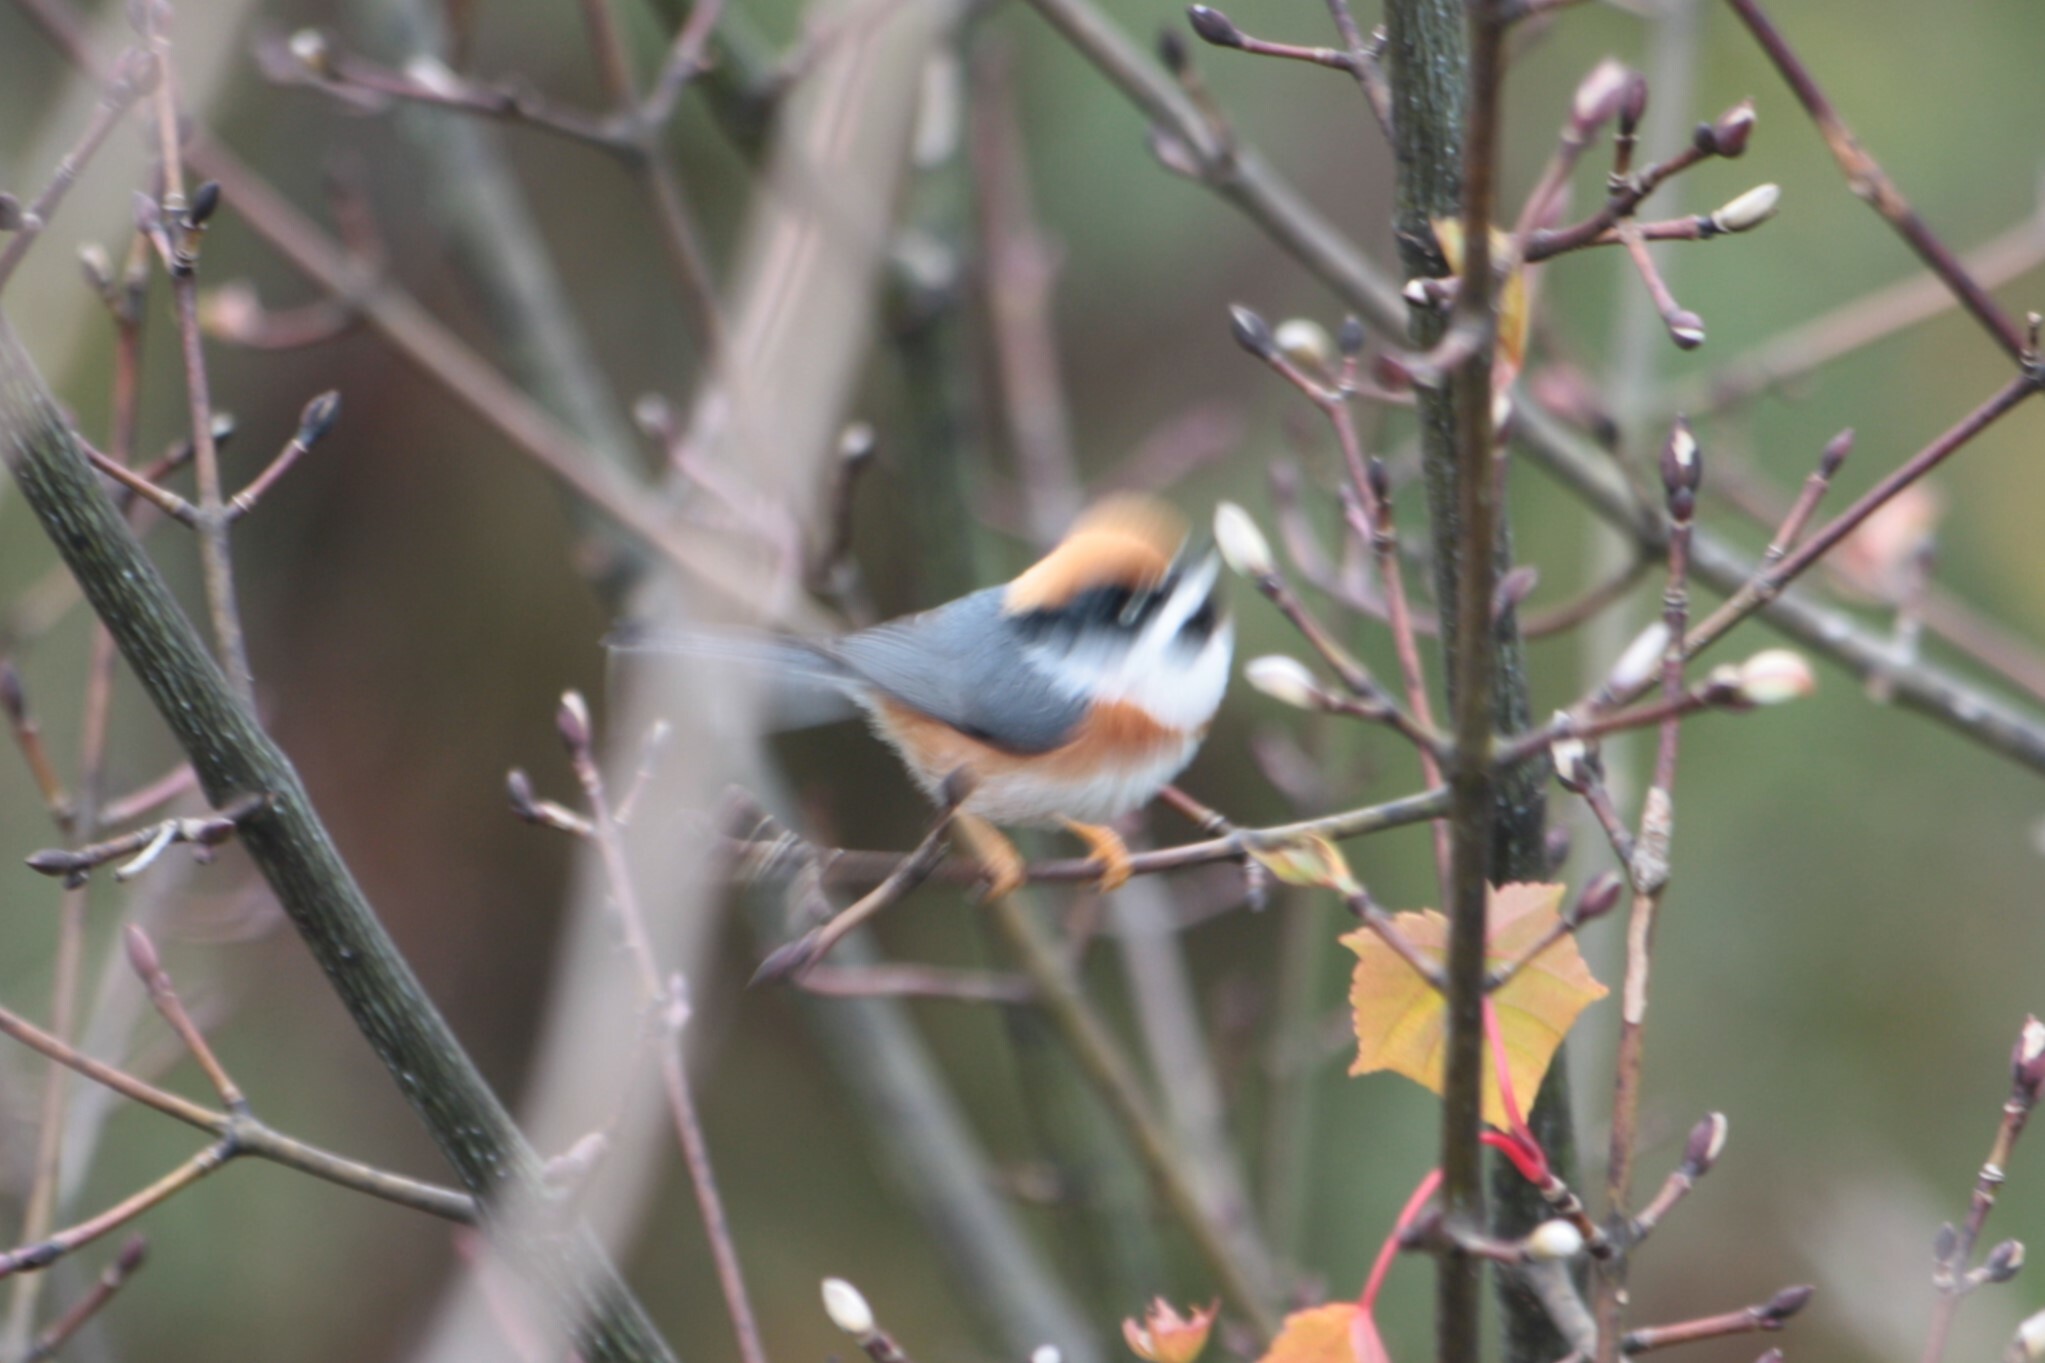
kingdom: Animalia
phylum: Chordata
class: Aves
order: Passeriformes
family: Aegithalidae
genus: Aegithalos
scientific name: Aegithalos concinnus
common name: Black-throated bushtit
